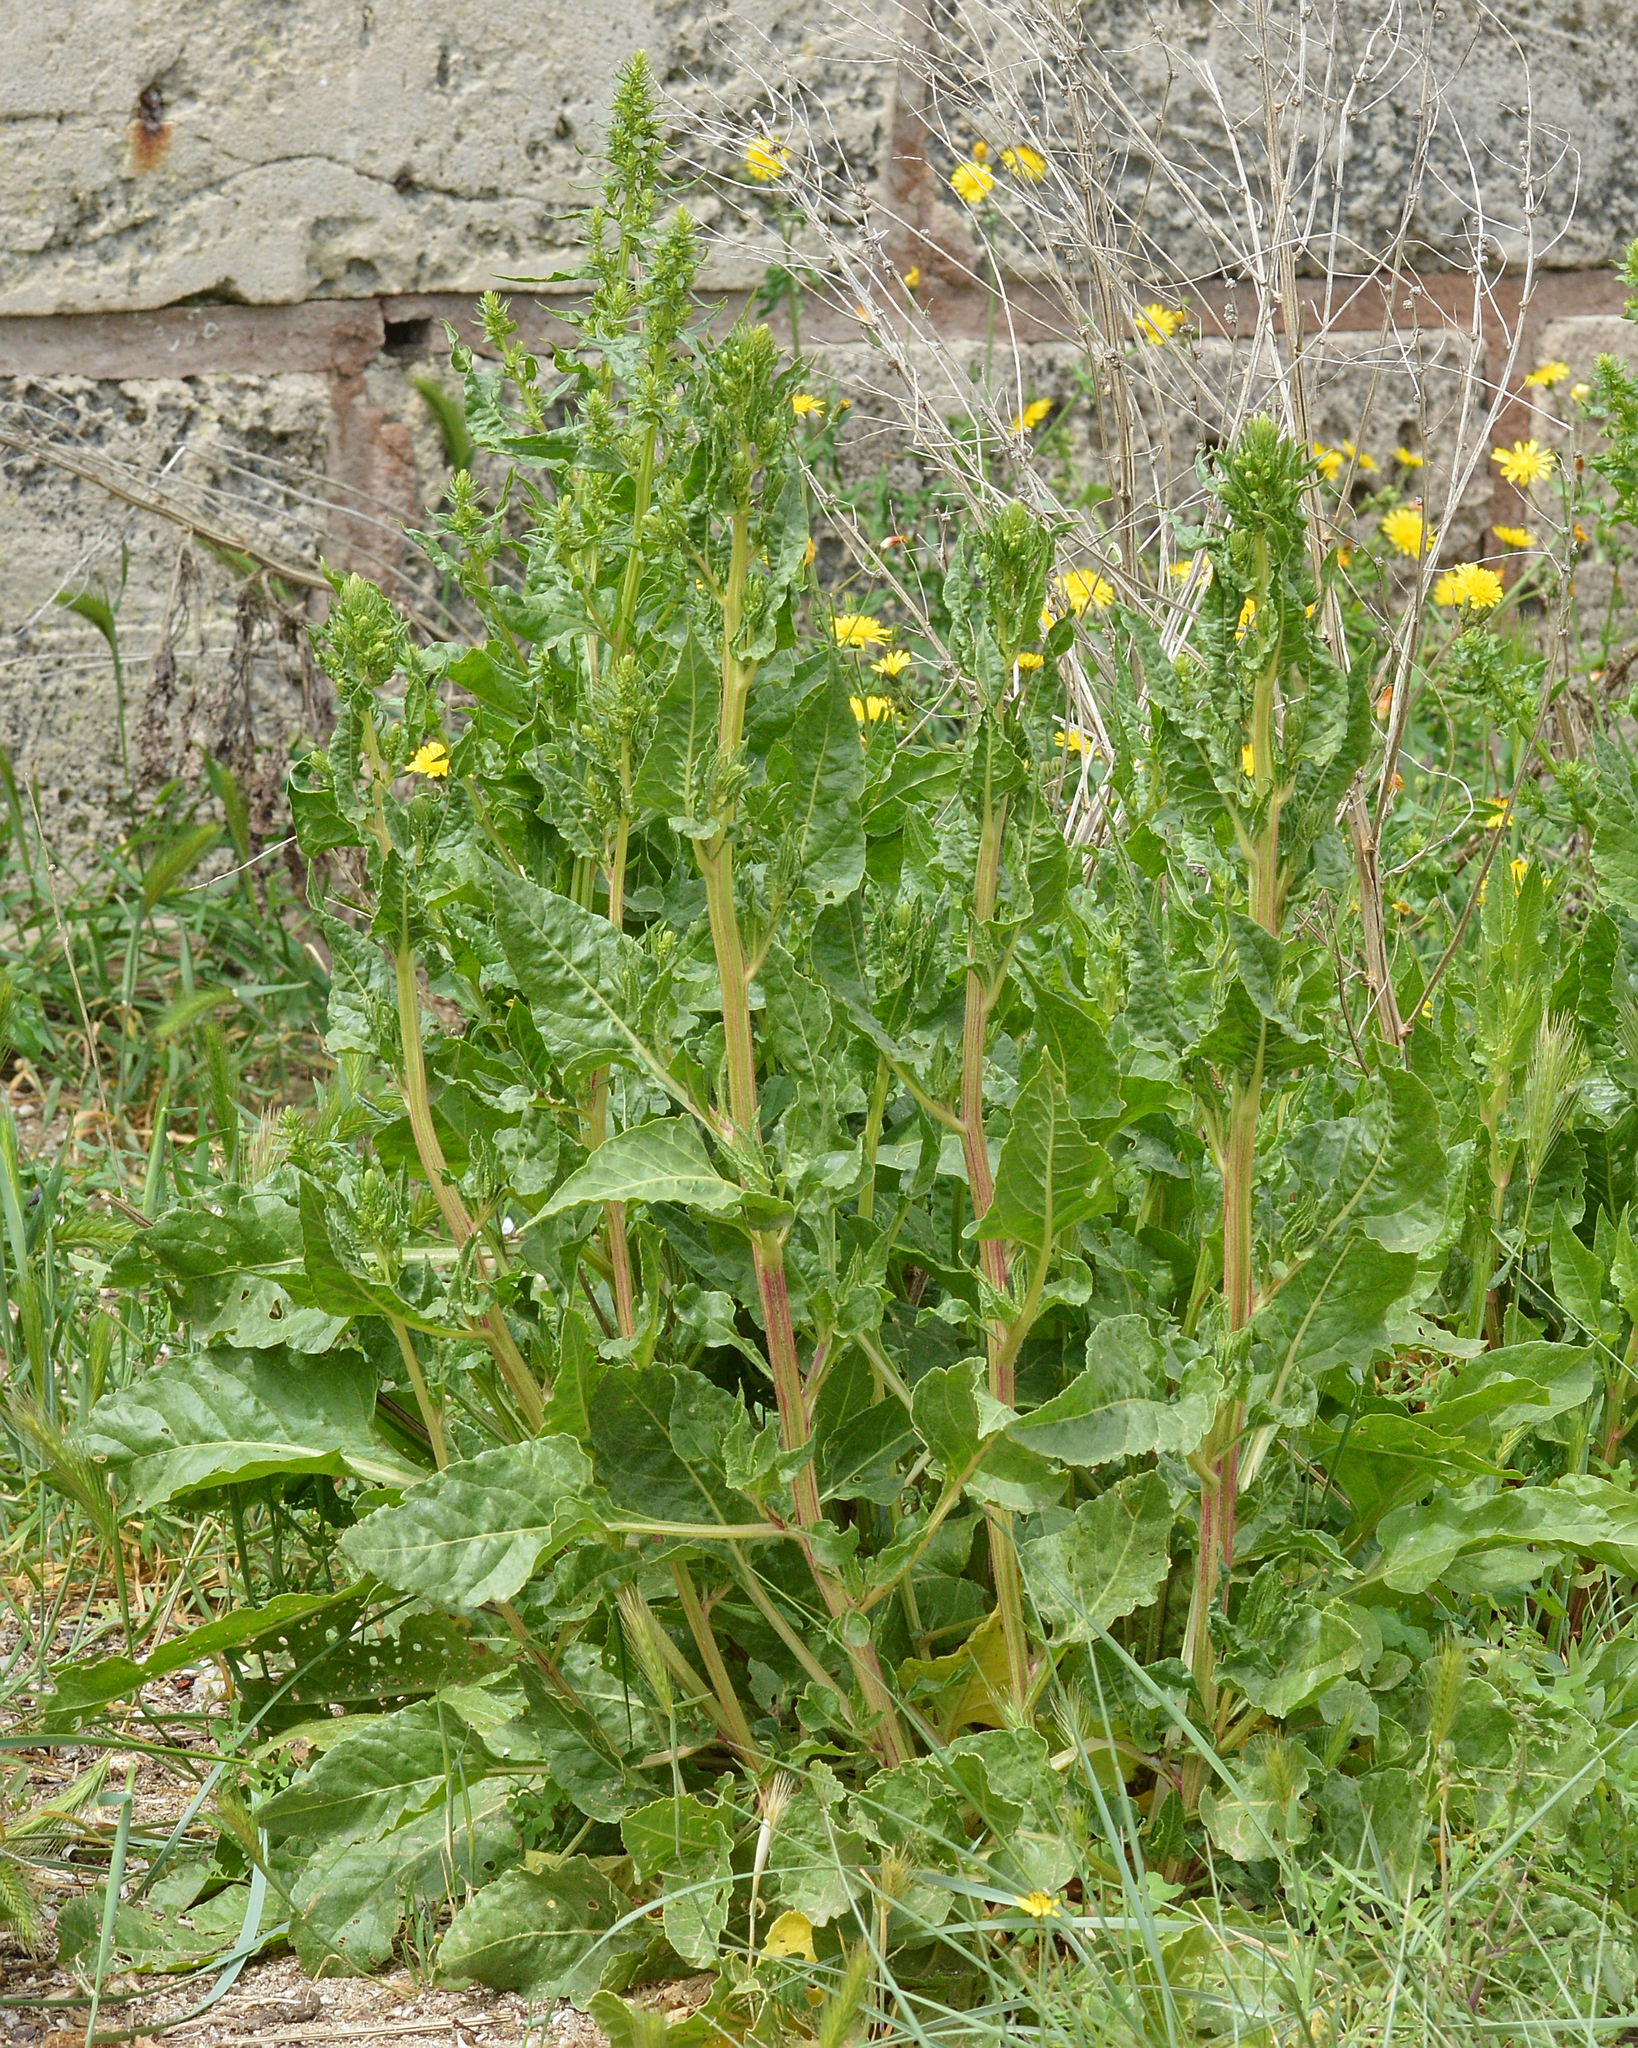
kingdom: Plantae
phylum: Tracheophyta
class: Magnoliopsida
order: Caryophyllales
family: Amaranthaceae
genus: Beta
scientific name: Beta vulgaris
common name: Beet
